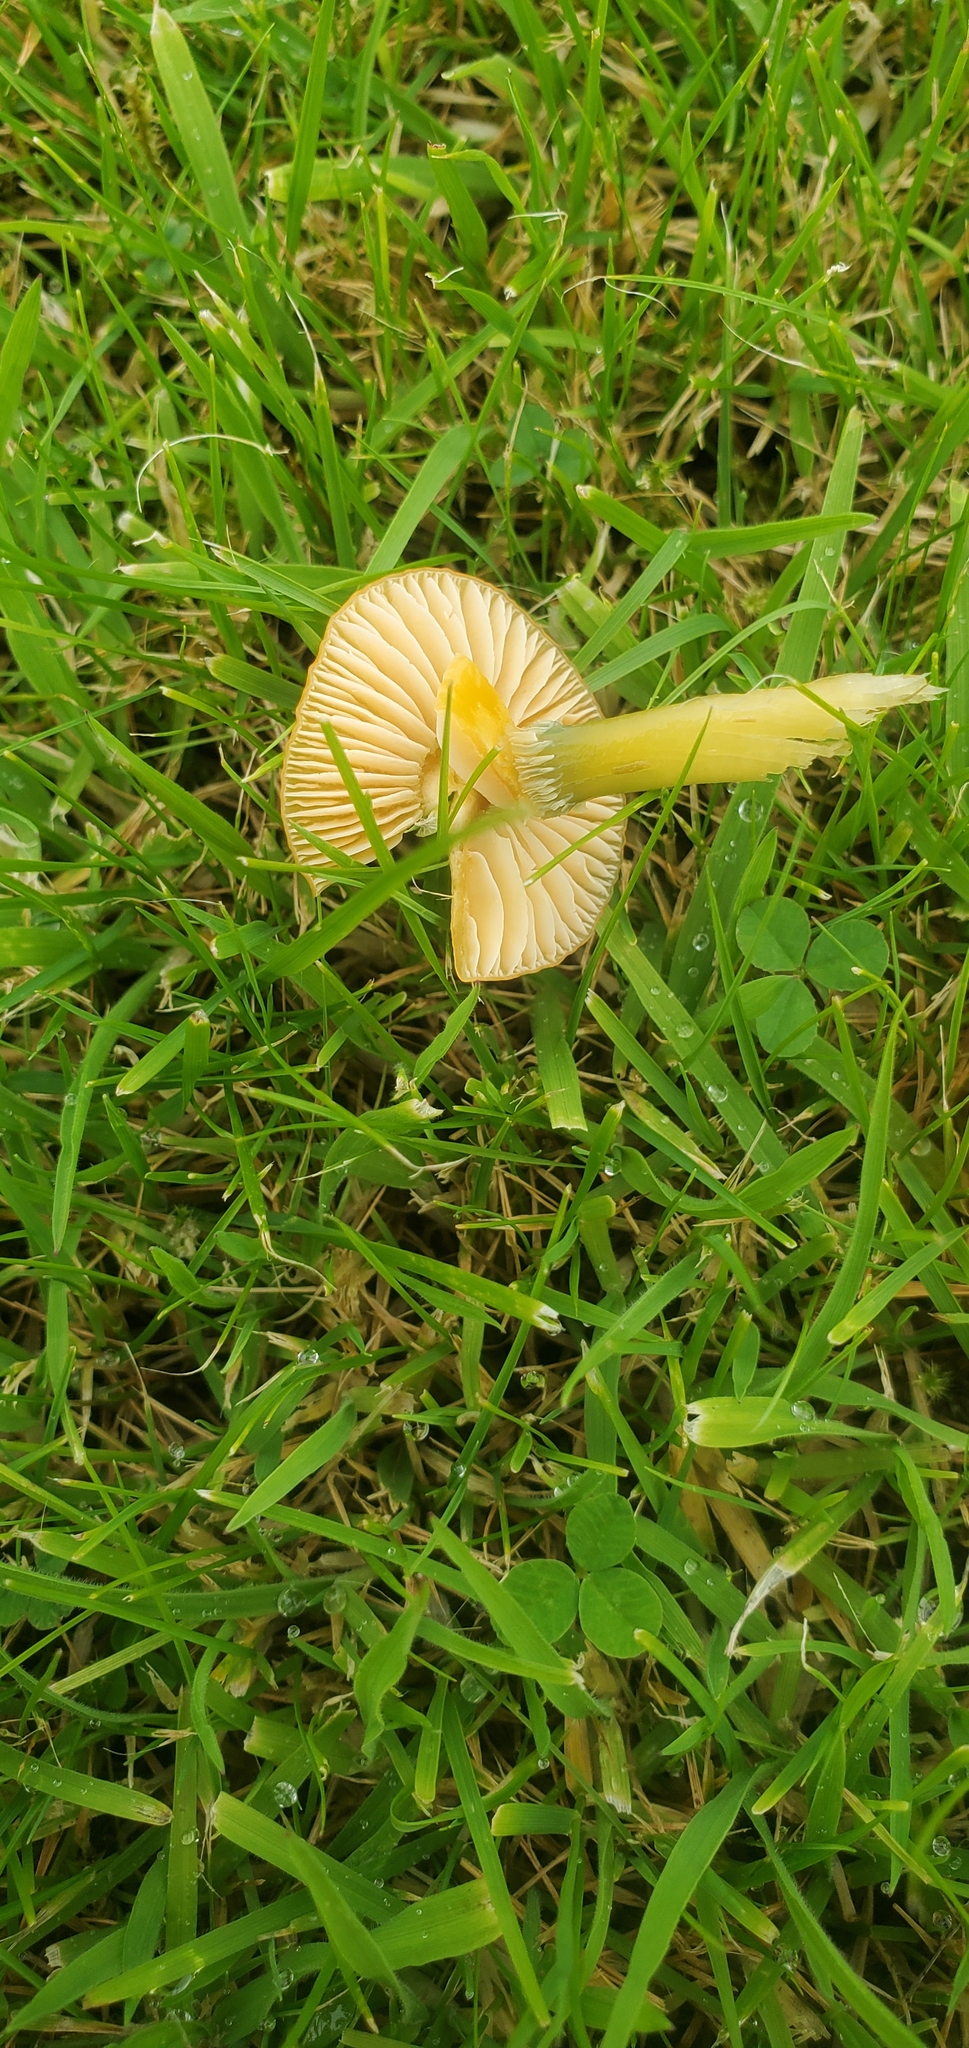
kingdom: Fungi
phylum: Basidiomycota
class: Agaricomycetes
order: Agaricales
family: Hygrophoraceae
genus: Gliophorus
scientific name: Gliophorus psittacinus
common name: Parrot wax-cap
